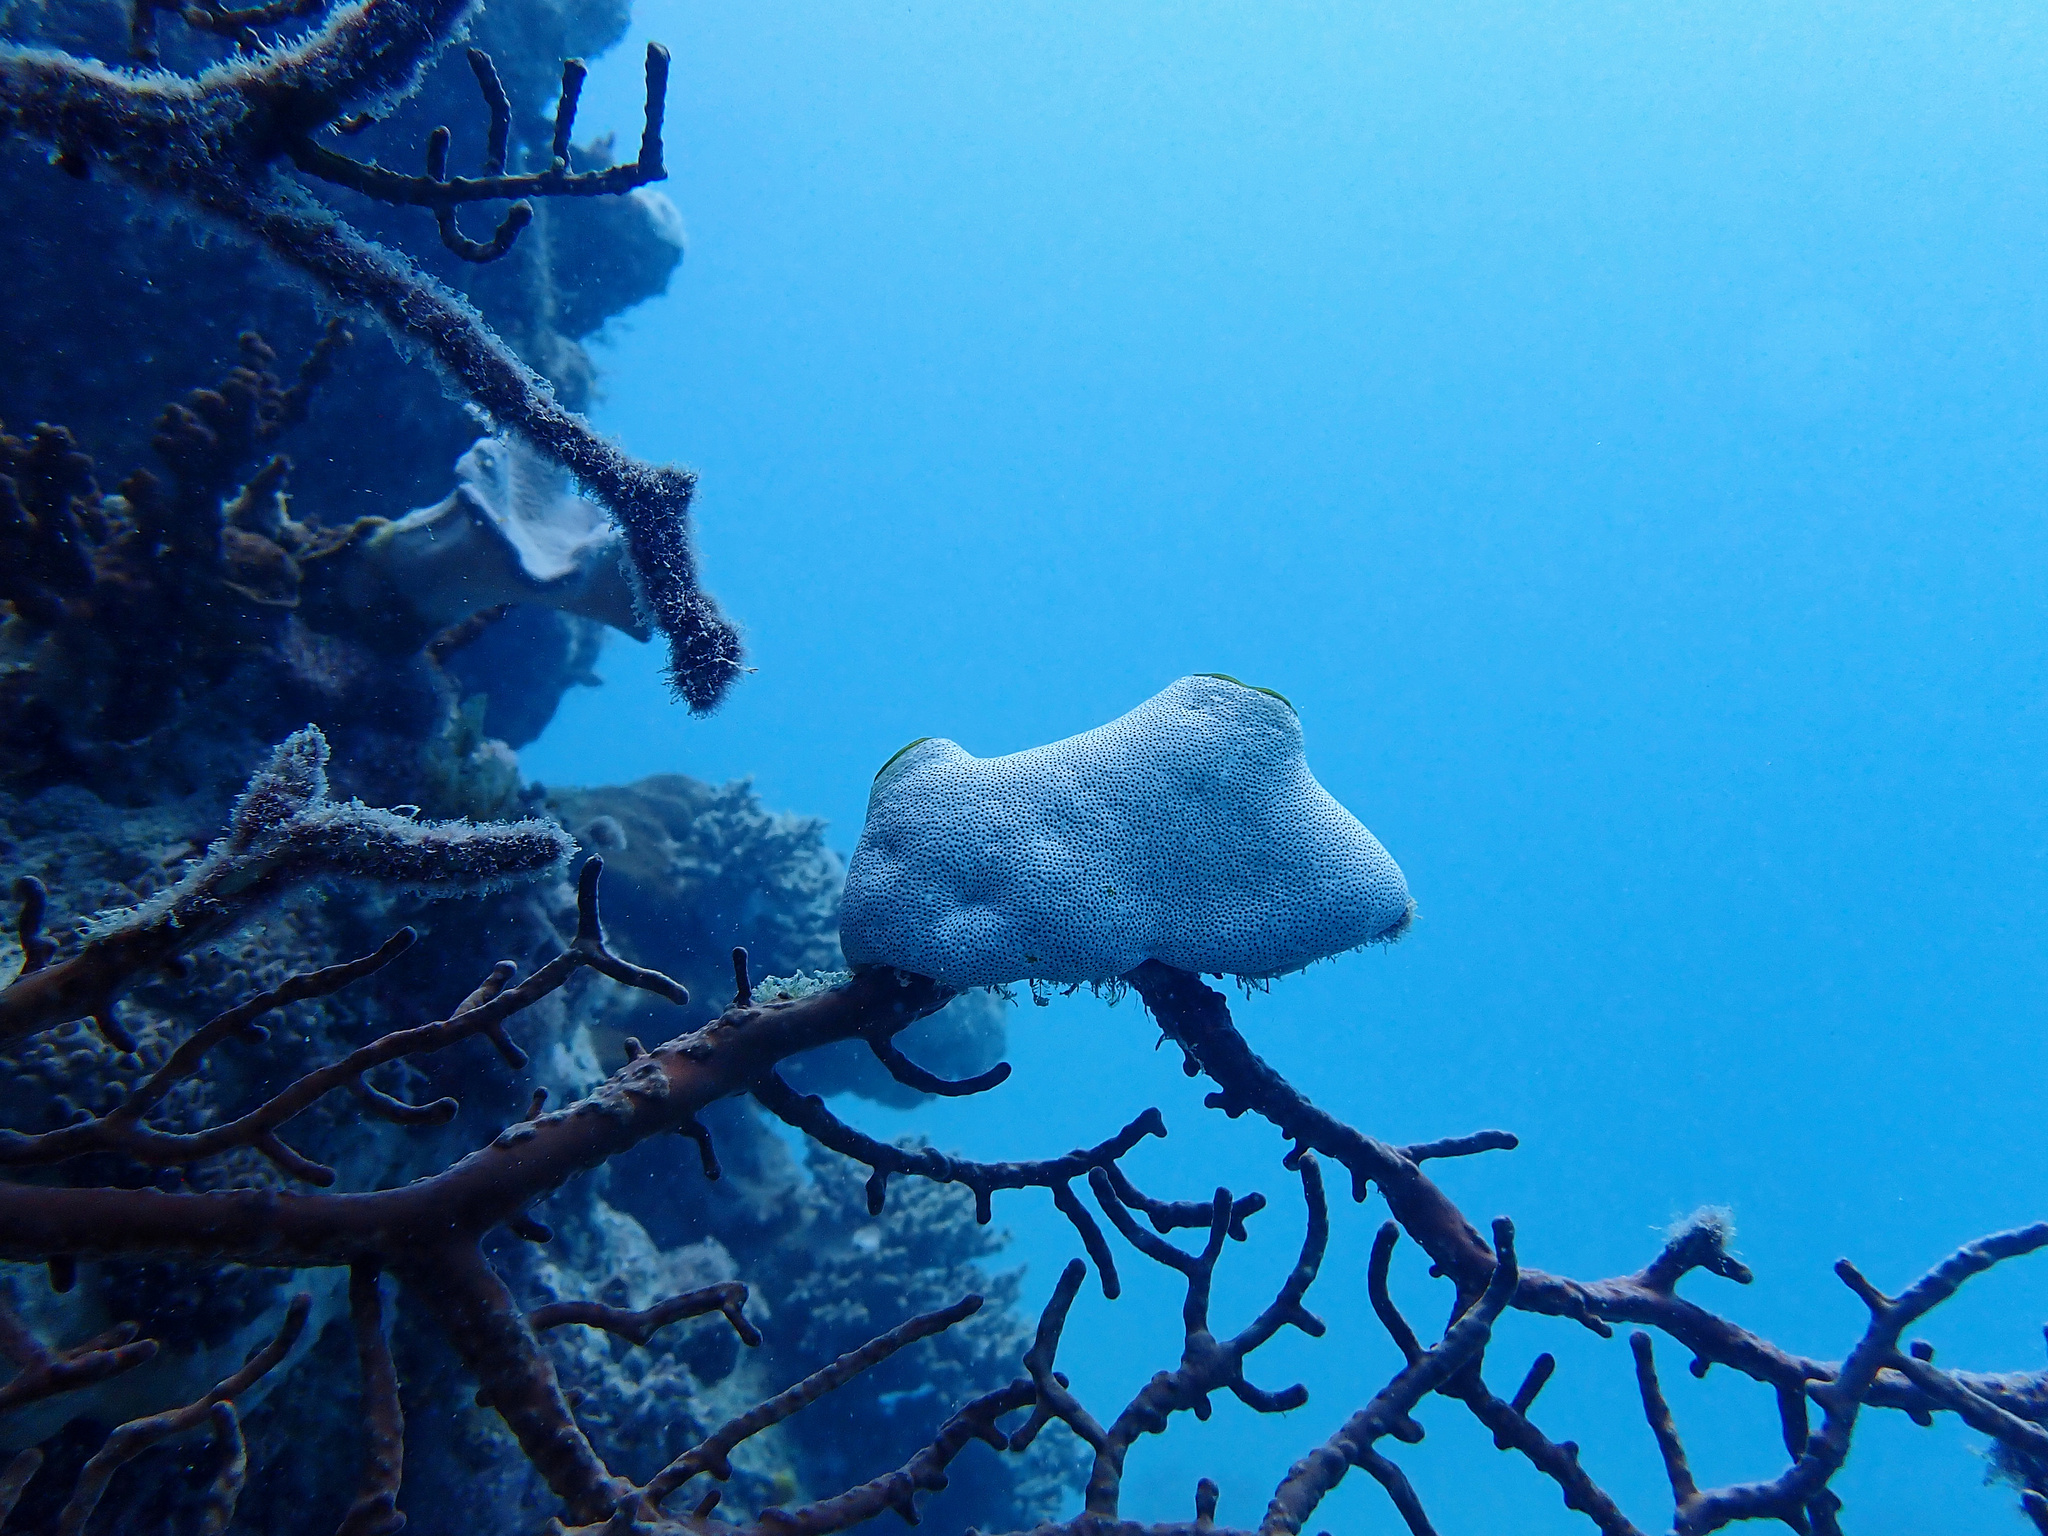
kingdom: Animalia
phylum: Chordata
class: Ascidiacea
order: Aplousobranchia
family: Didemnidae
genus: Didemnum
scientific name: Didemnum molle
